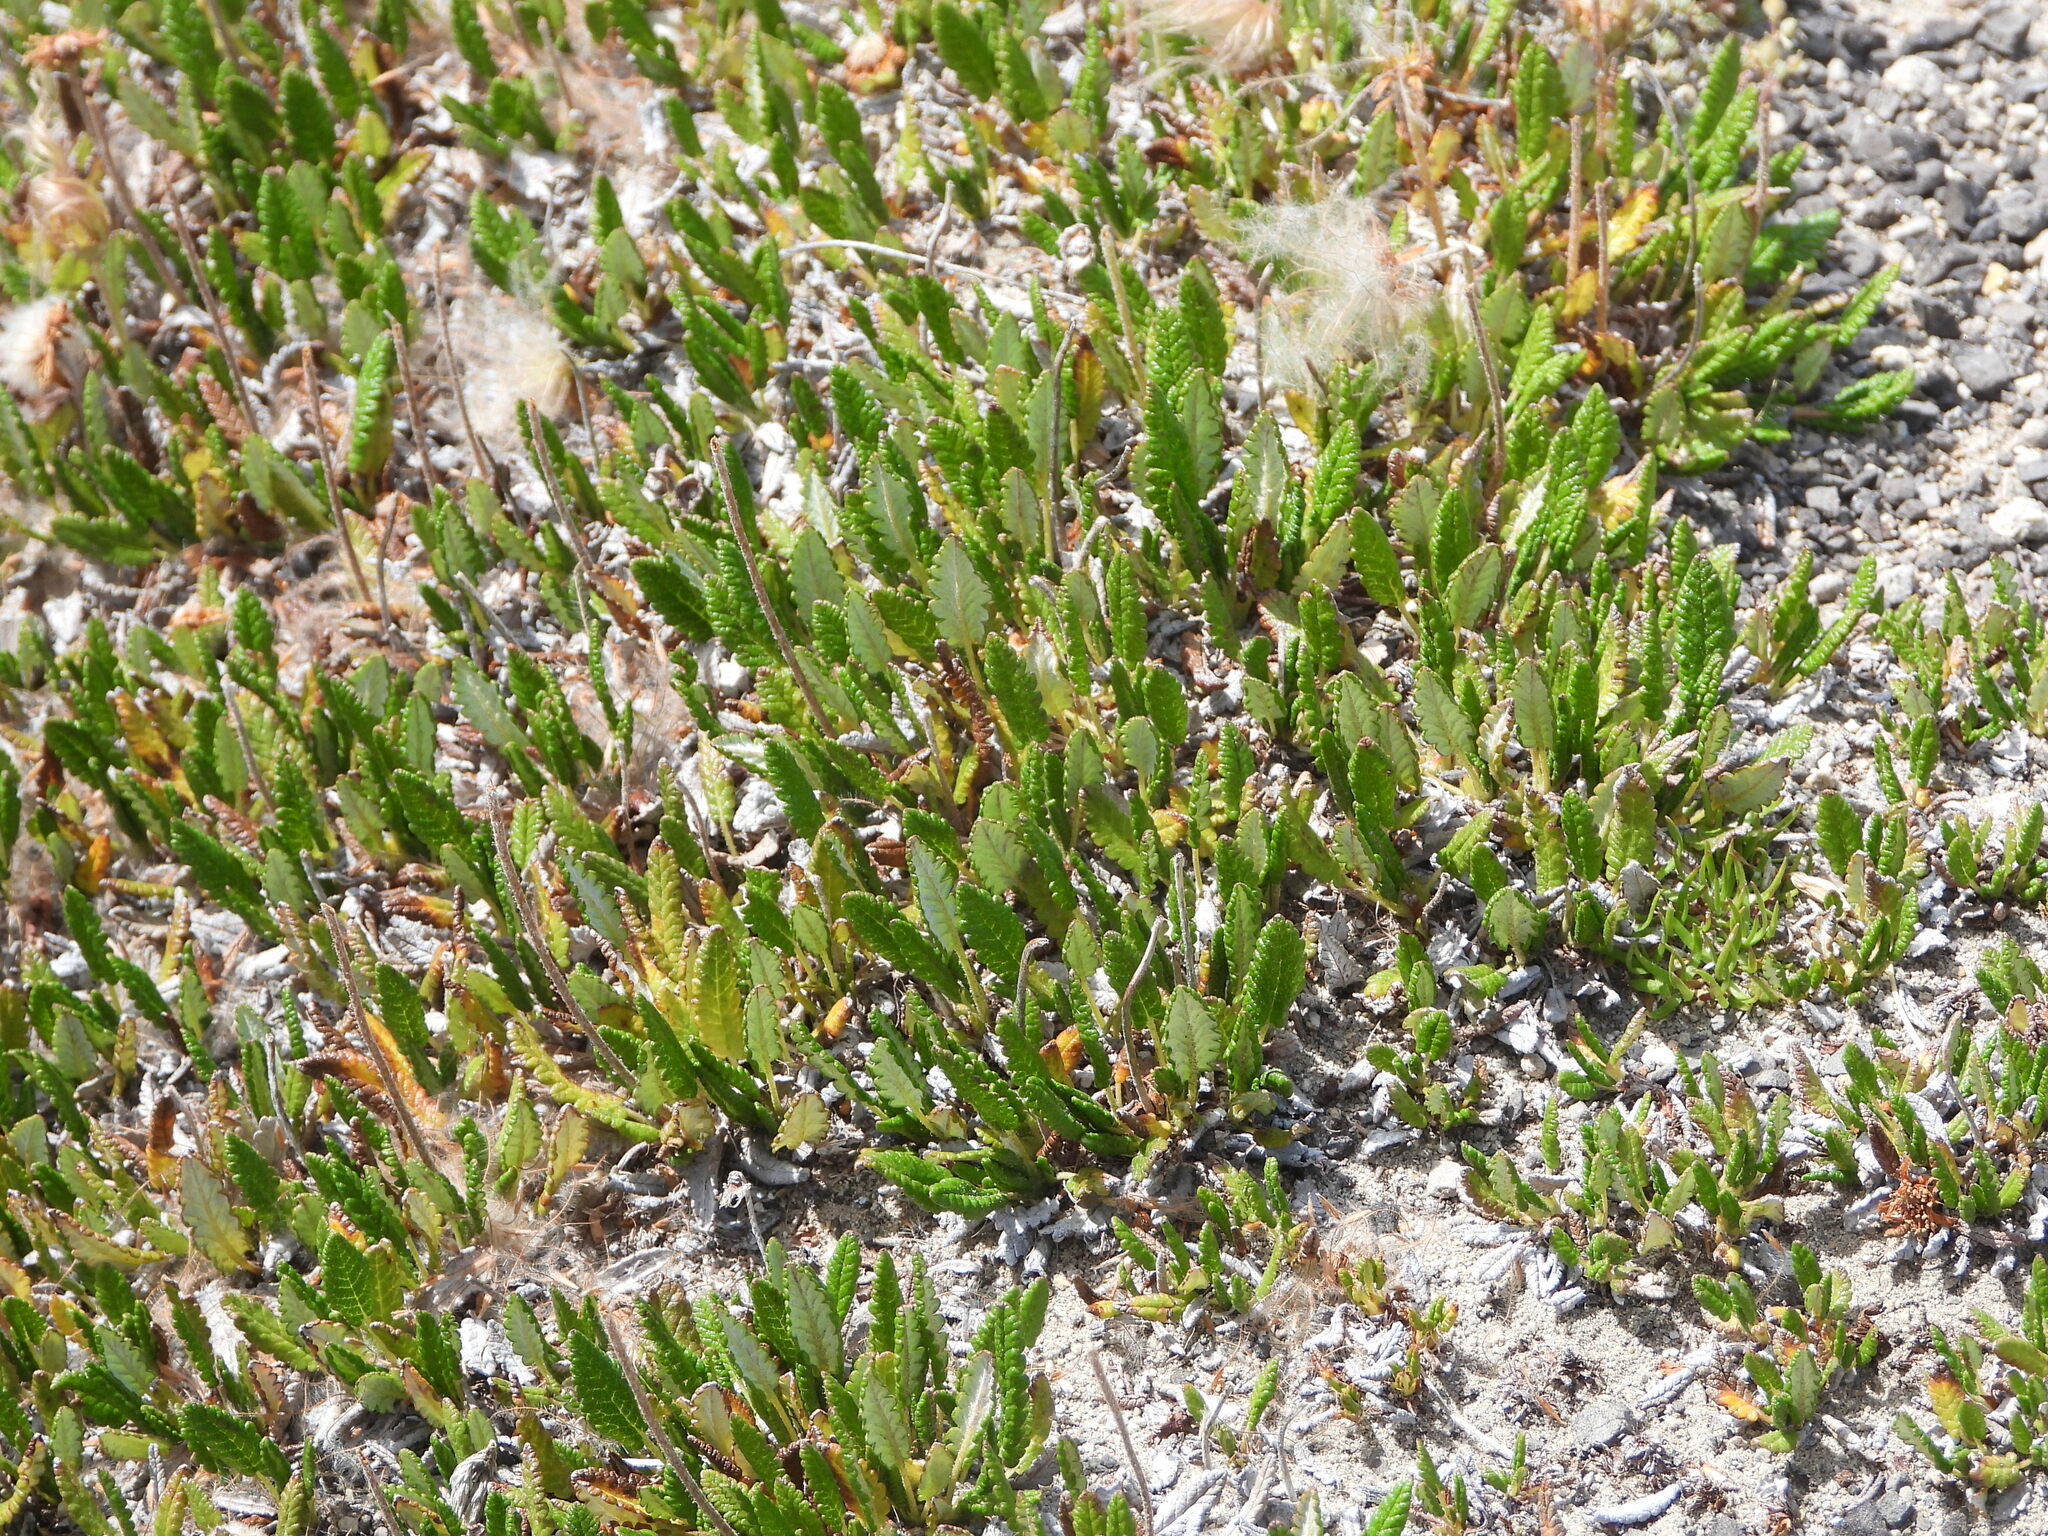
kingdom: Plantae
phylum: Tracheophyta
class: Magnoliopsida
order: Rosales
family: Rosaceae
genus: Dryas
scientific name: Dryas octopetala
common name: Eight-petal mountain-avens
